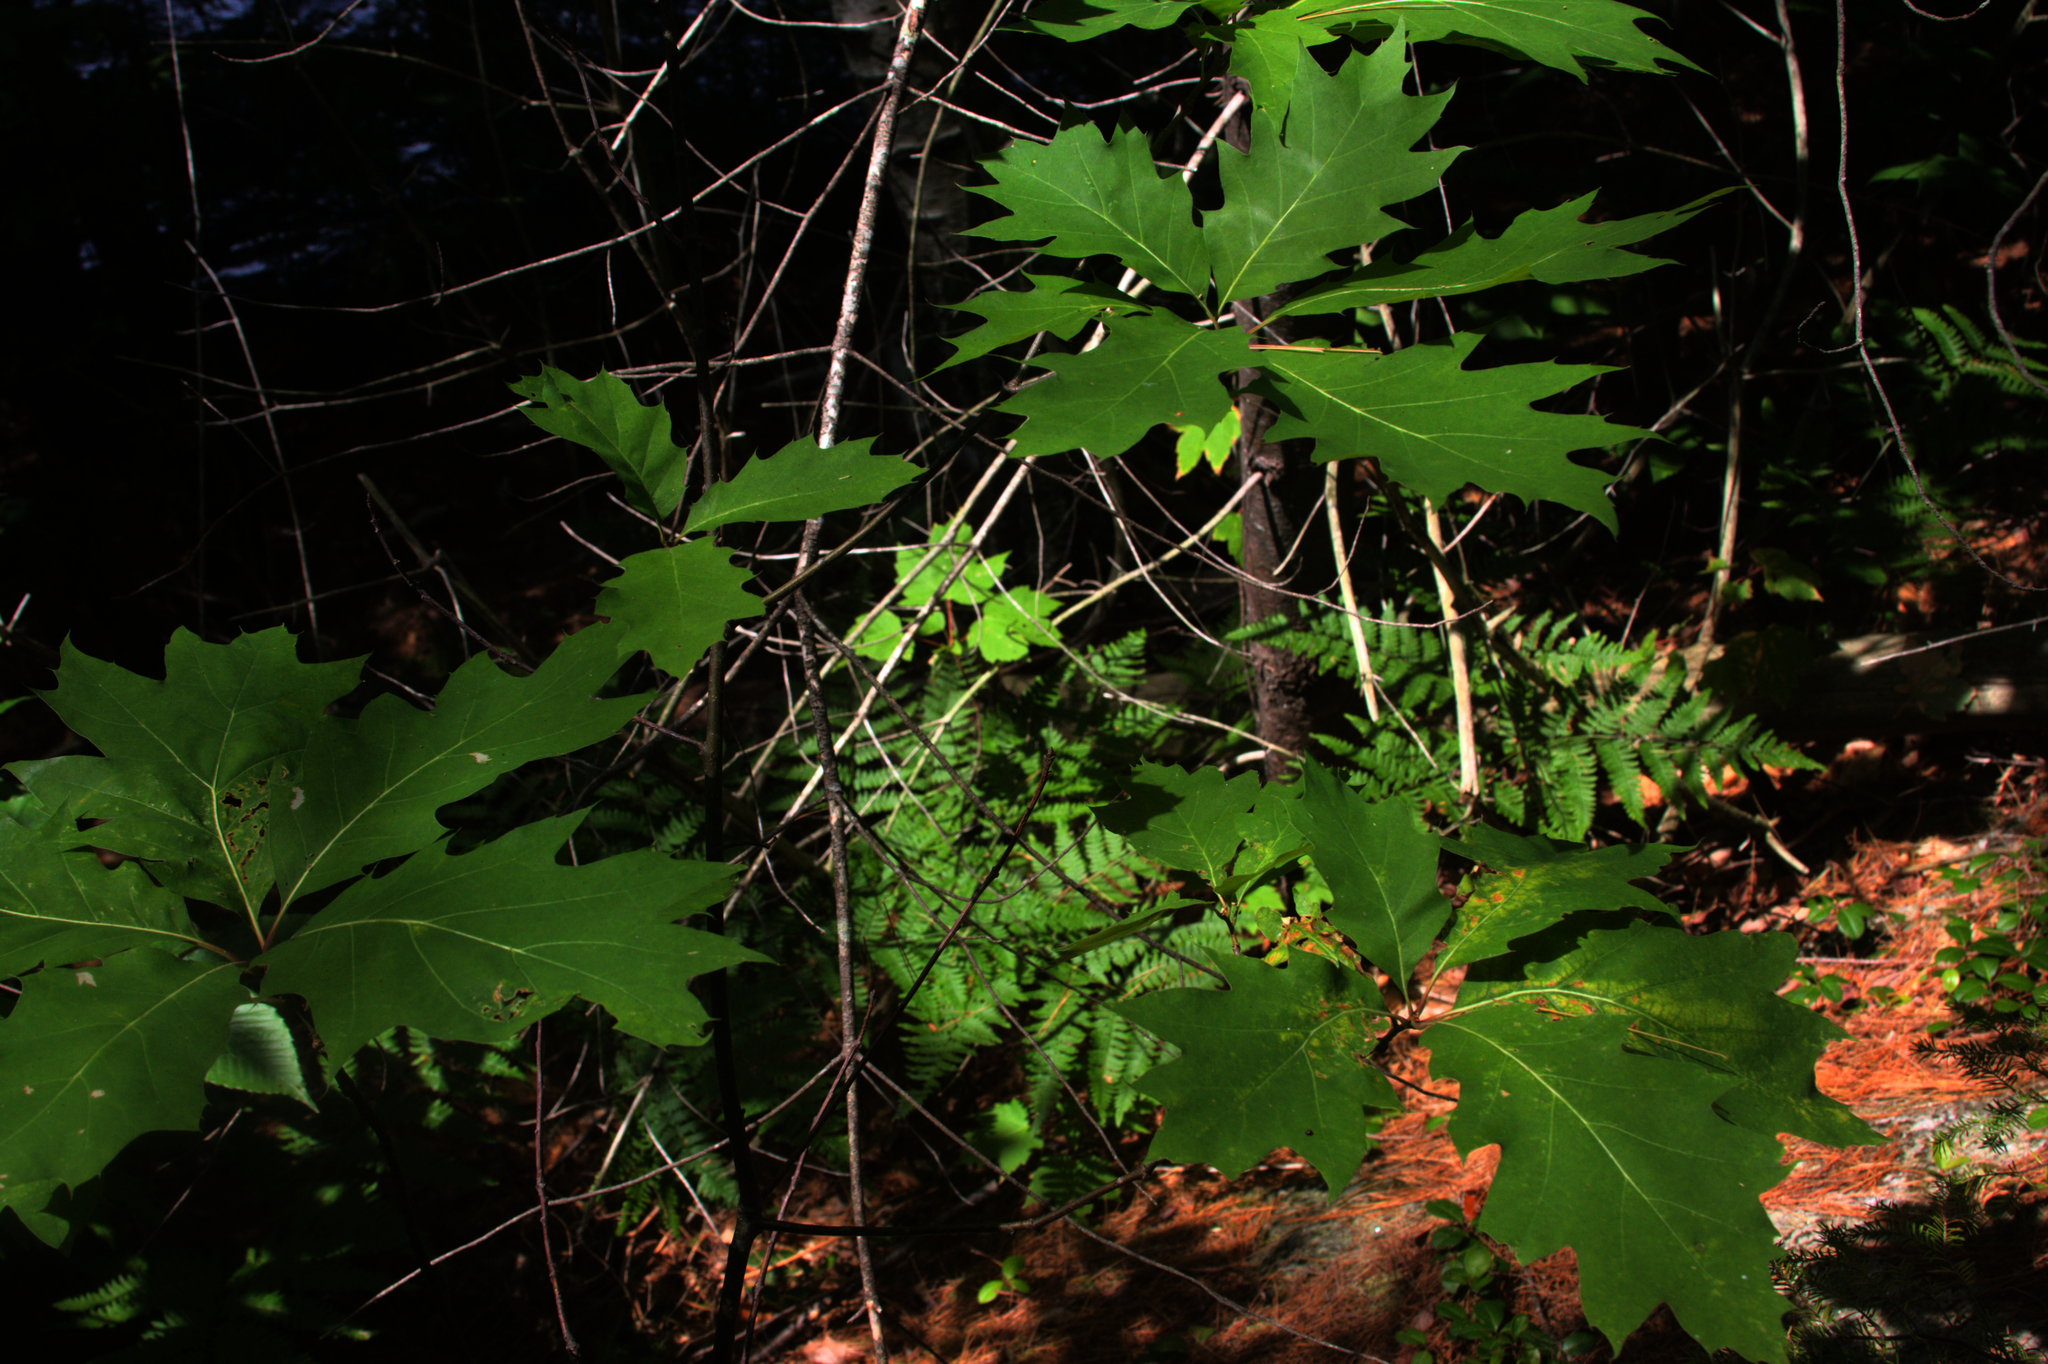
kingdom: Plantae
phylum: Tracheophyta
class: Magnoliopsida
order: Fagales
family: Fagaceae
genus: Quercus
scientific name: Quercus rubra
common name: Red oak
